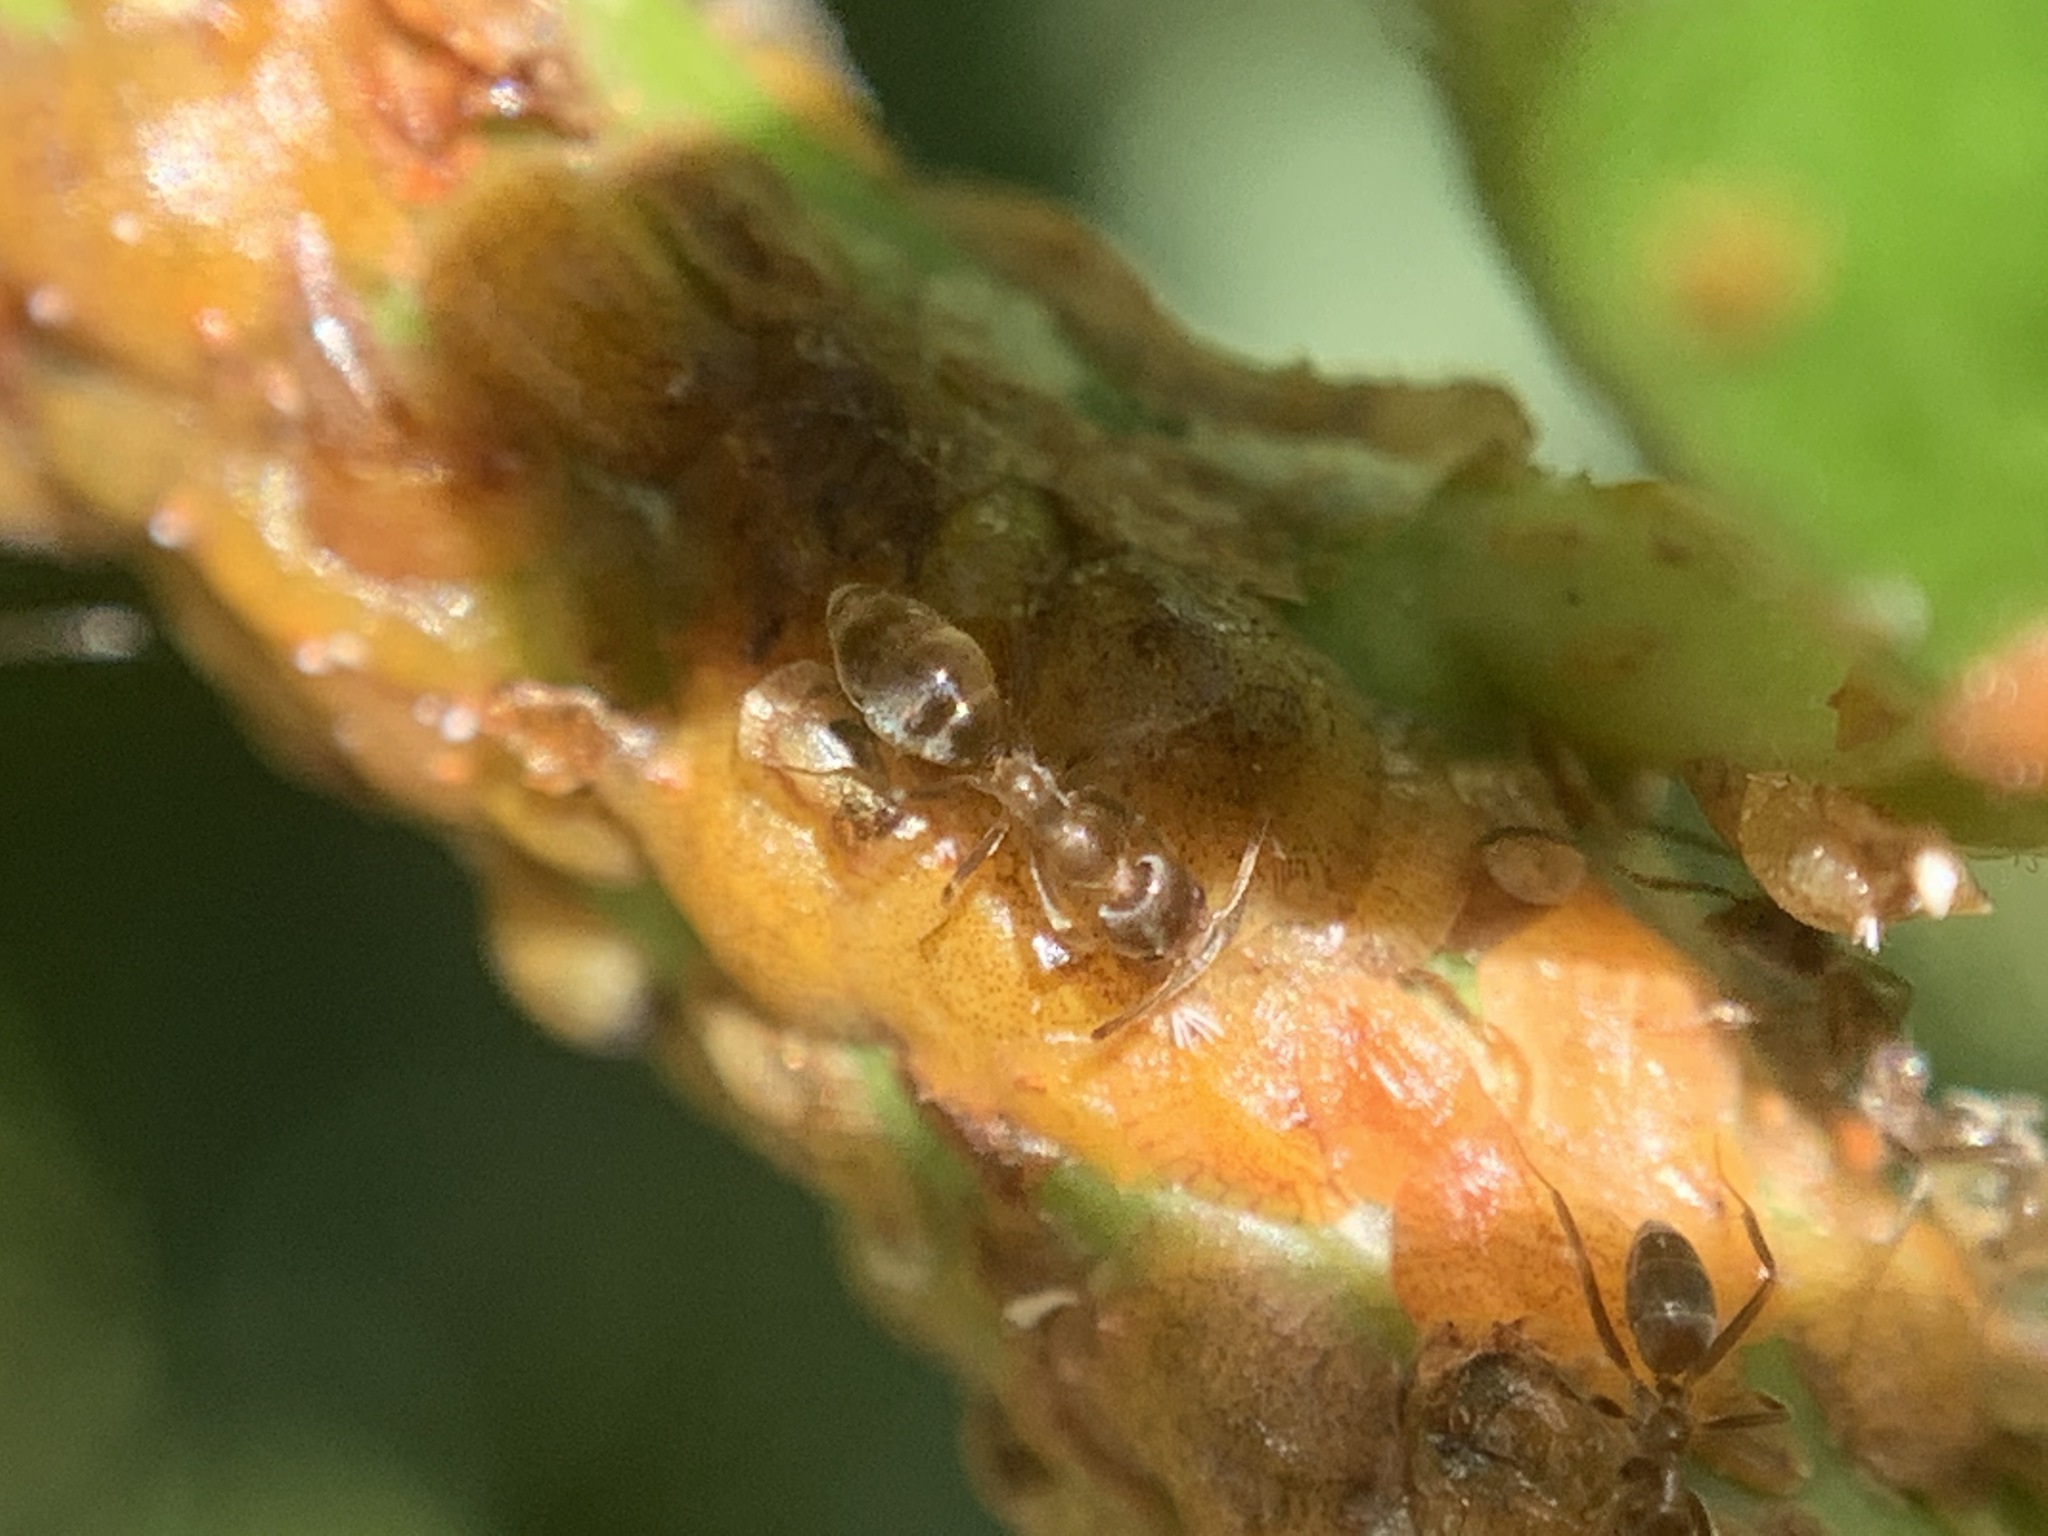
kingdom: Animalia
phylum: Arthropoda
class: Insecta
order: Hymenoptera
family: Formicidae
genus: Linepithema
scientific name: Linepithema humile
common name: Argentine ant
